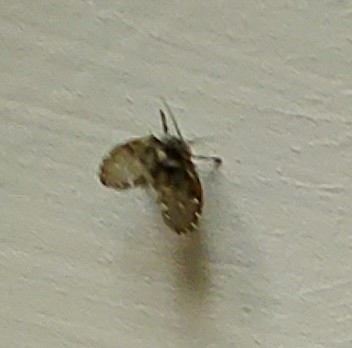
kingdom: Animalia
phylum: Arthropoda
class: Insecta
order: Diptera
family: Psychodidae
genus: Clogmia
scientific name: Clogmia albipunctatus
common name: White-spotted moth fly
